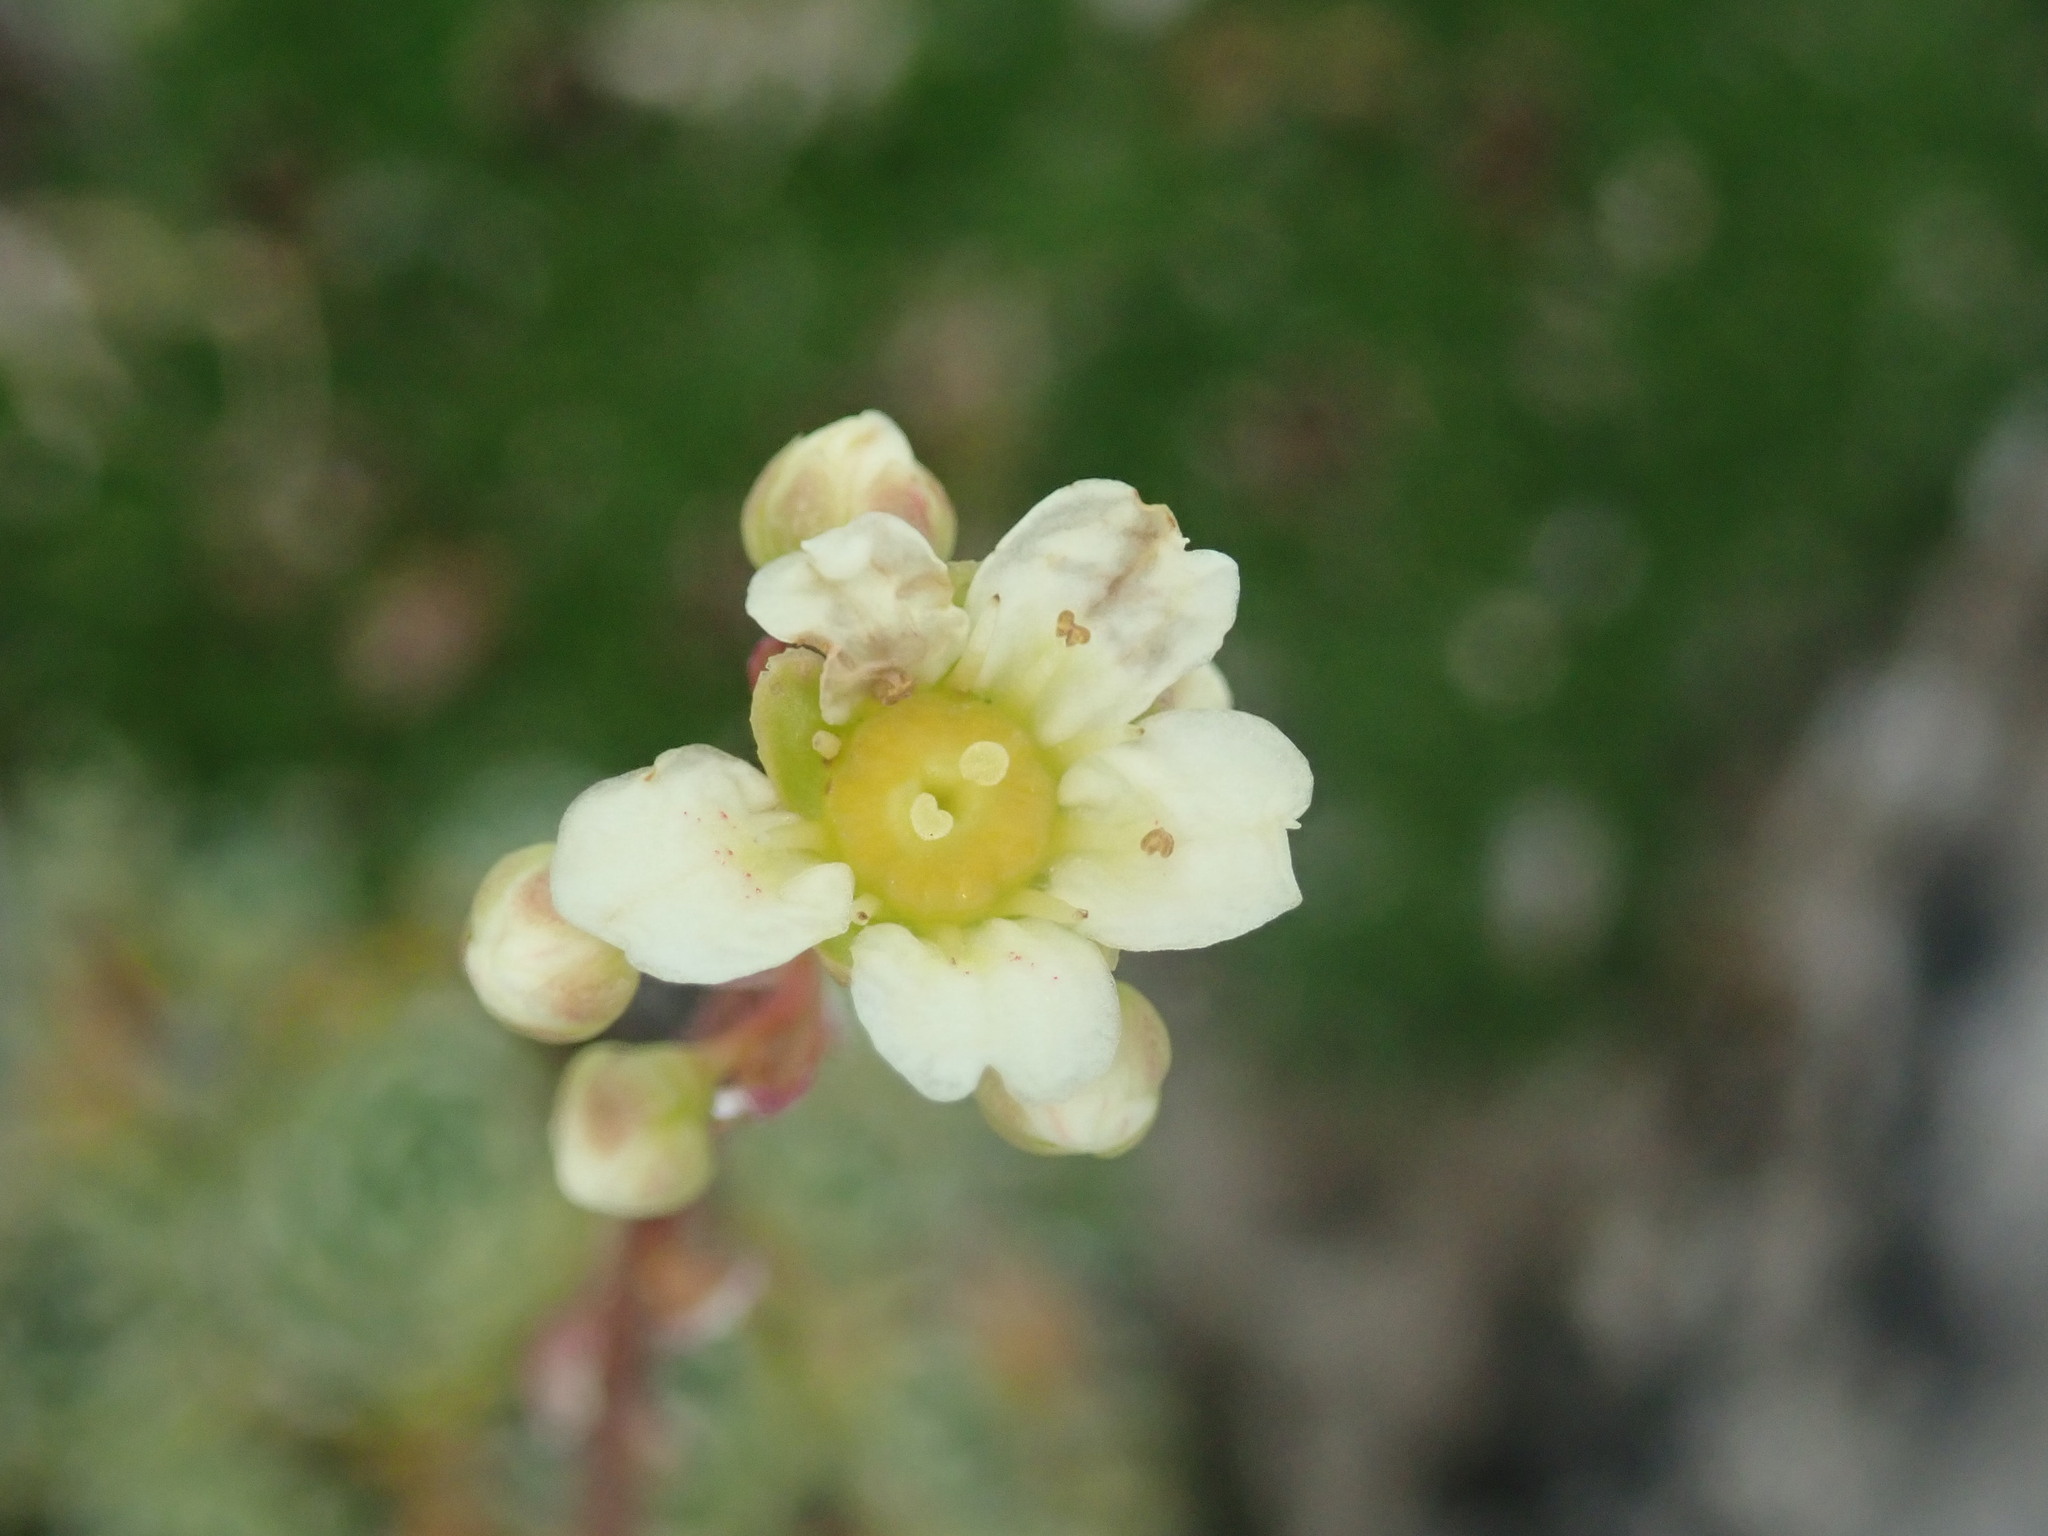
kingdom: Plantae
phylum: Tracheophyta
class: Magnoliopsida
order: Saxifragales
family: Saxifragaceae
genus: Saxifraga
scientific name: Saxifraga paniculata
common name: Livelong saxifrage
